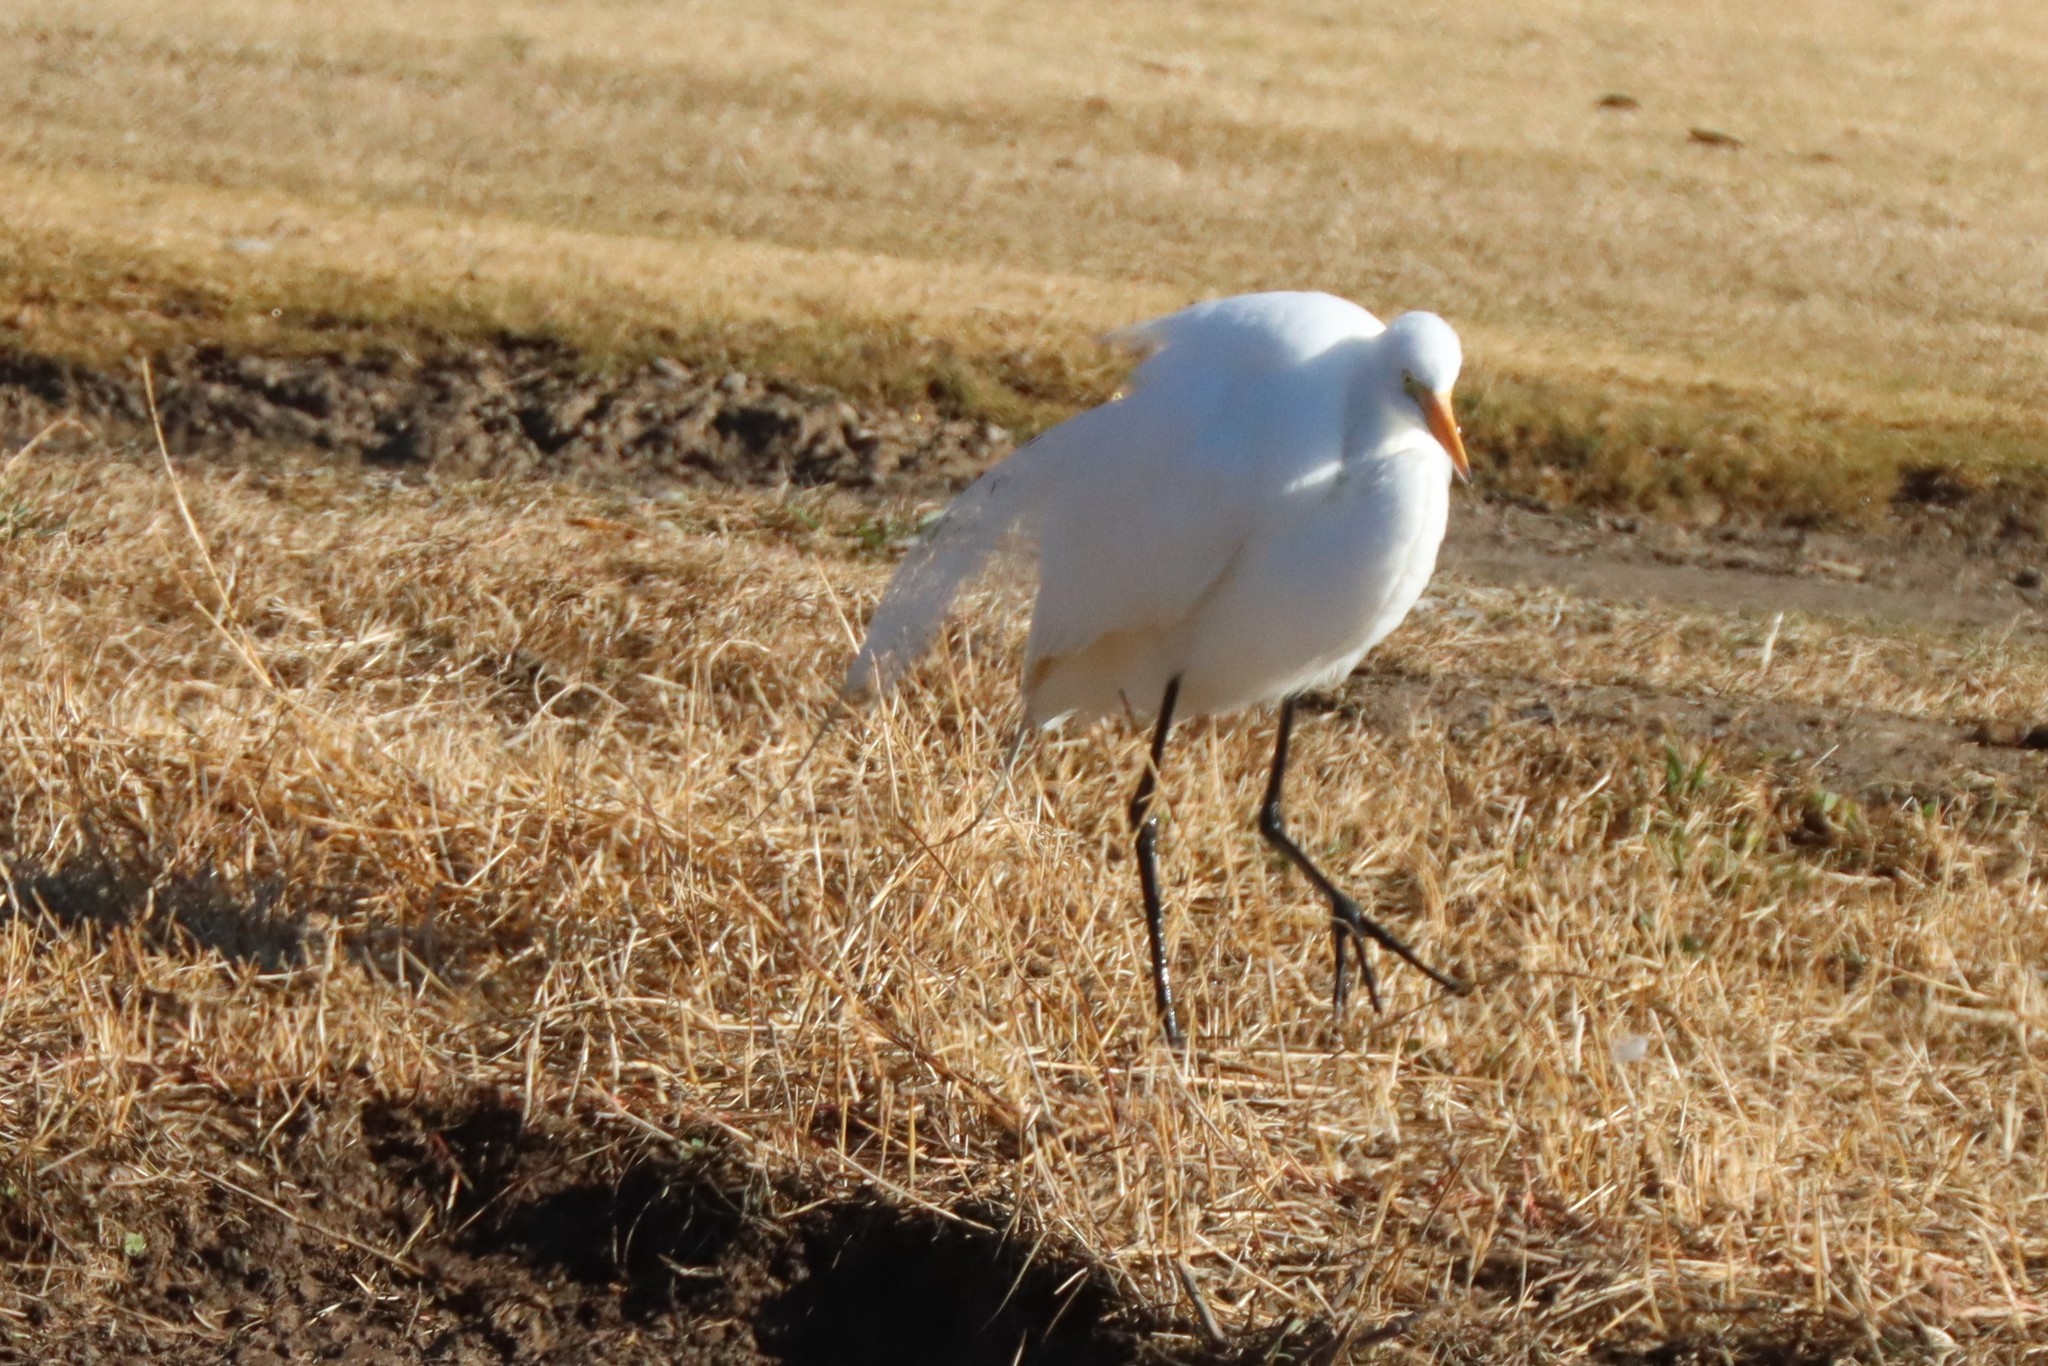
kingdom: Animalia
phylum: Chordata
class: Aves
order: Pelecaniformes
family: Ardeidae
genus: Ardea
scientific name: Ardea alba
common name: Great egret
